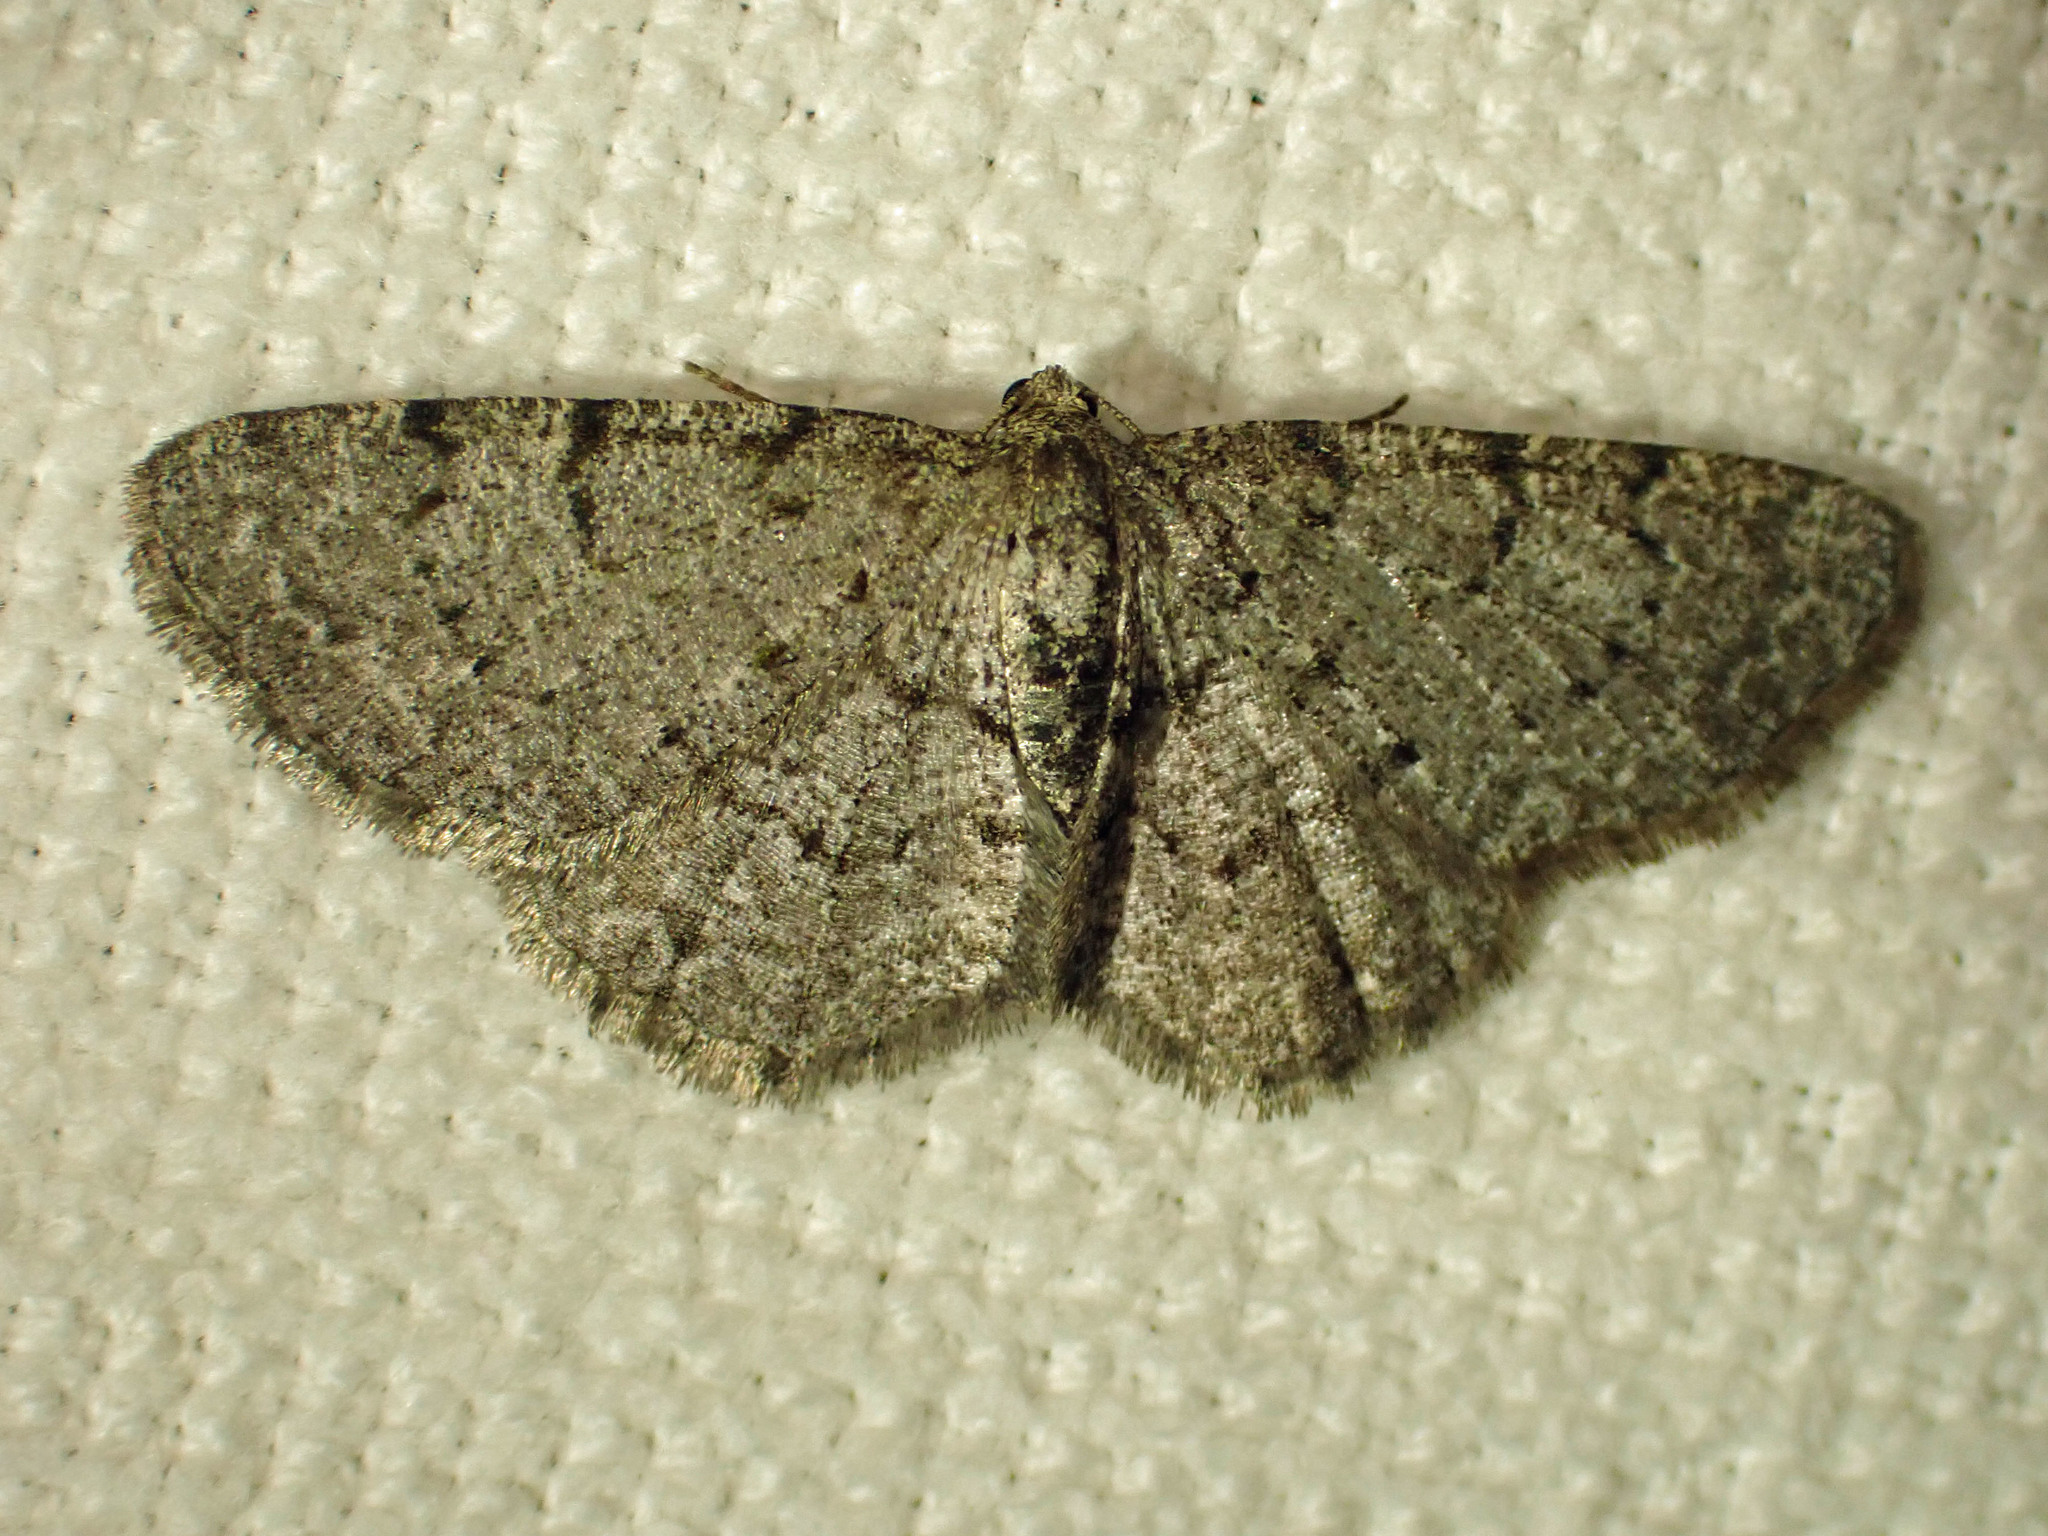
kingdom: Animalia
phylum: Arthropoda
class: Insecta
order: Lepidoptera
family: Geometridae
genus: Aethalura
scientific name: Aethalura intertexta
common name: Four-barred gray
